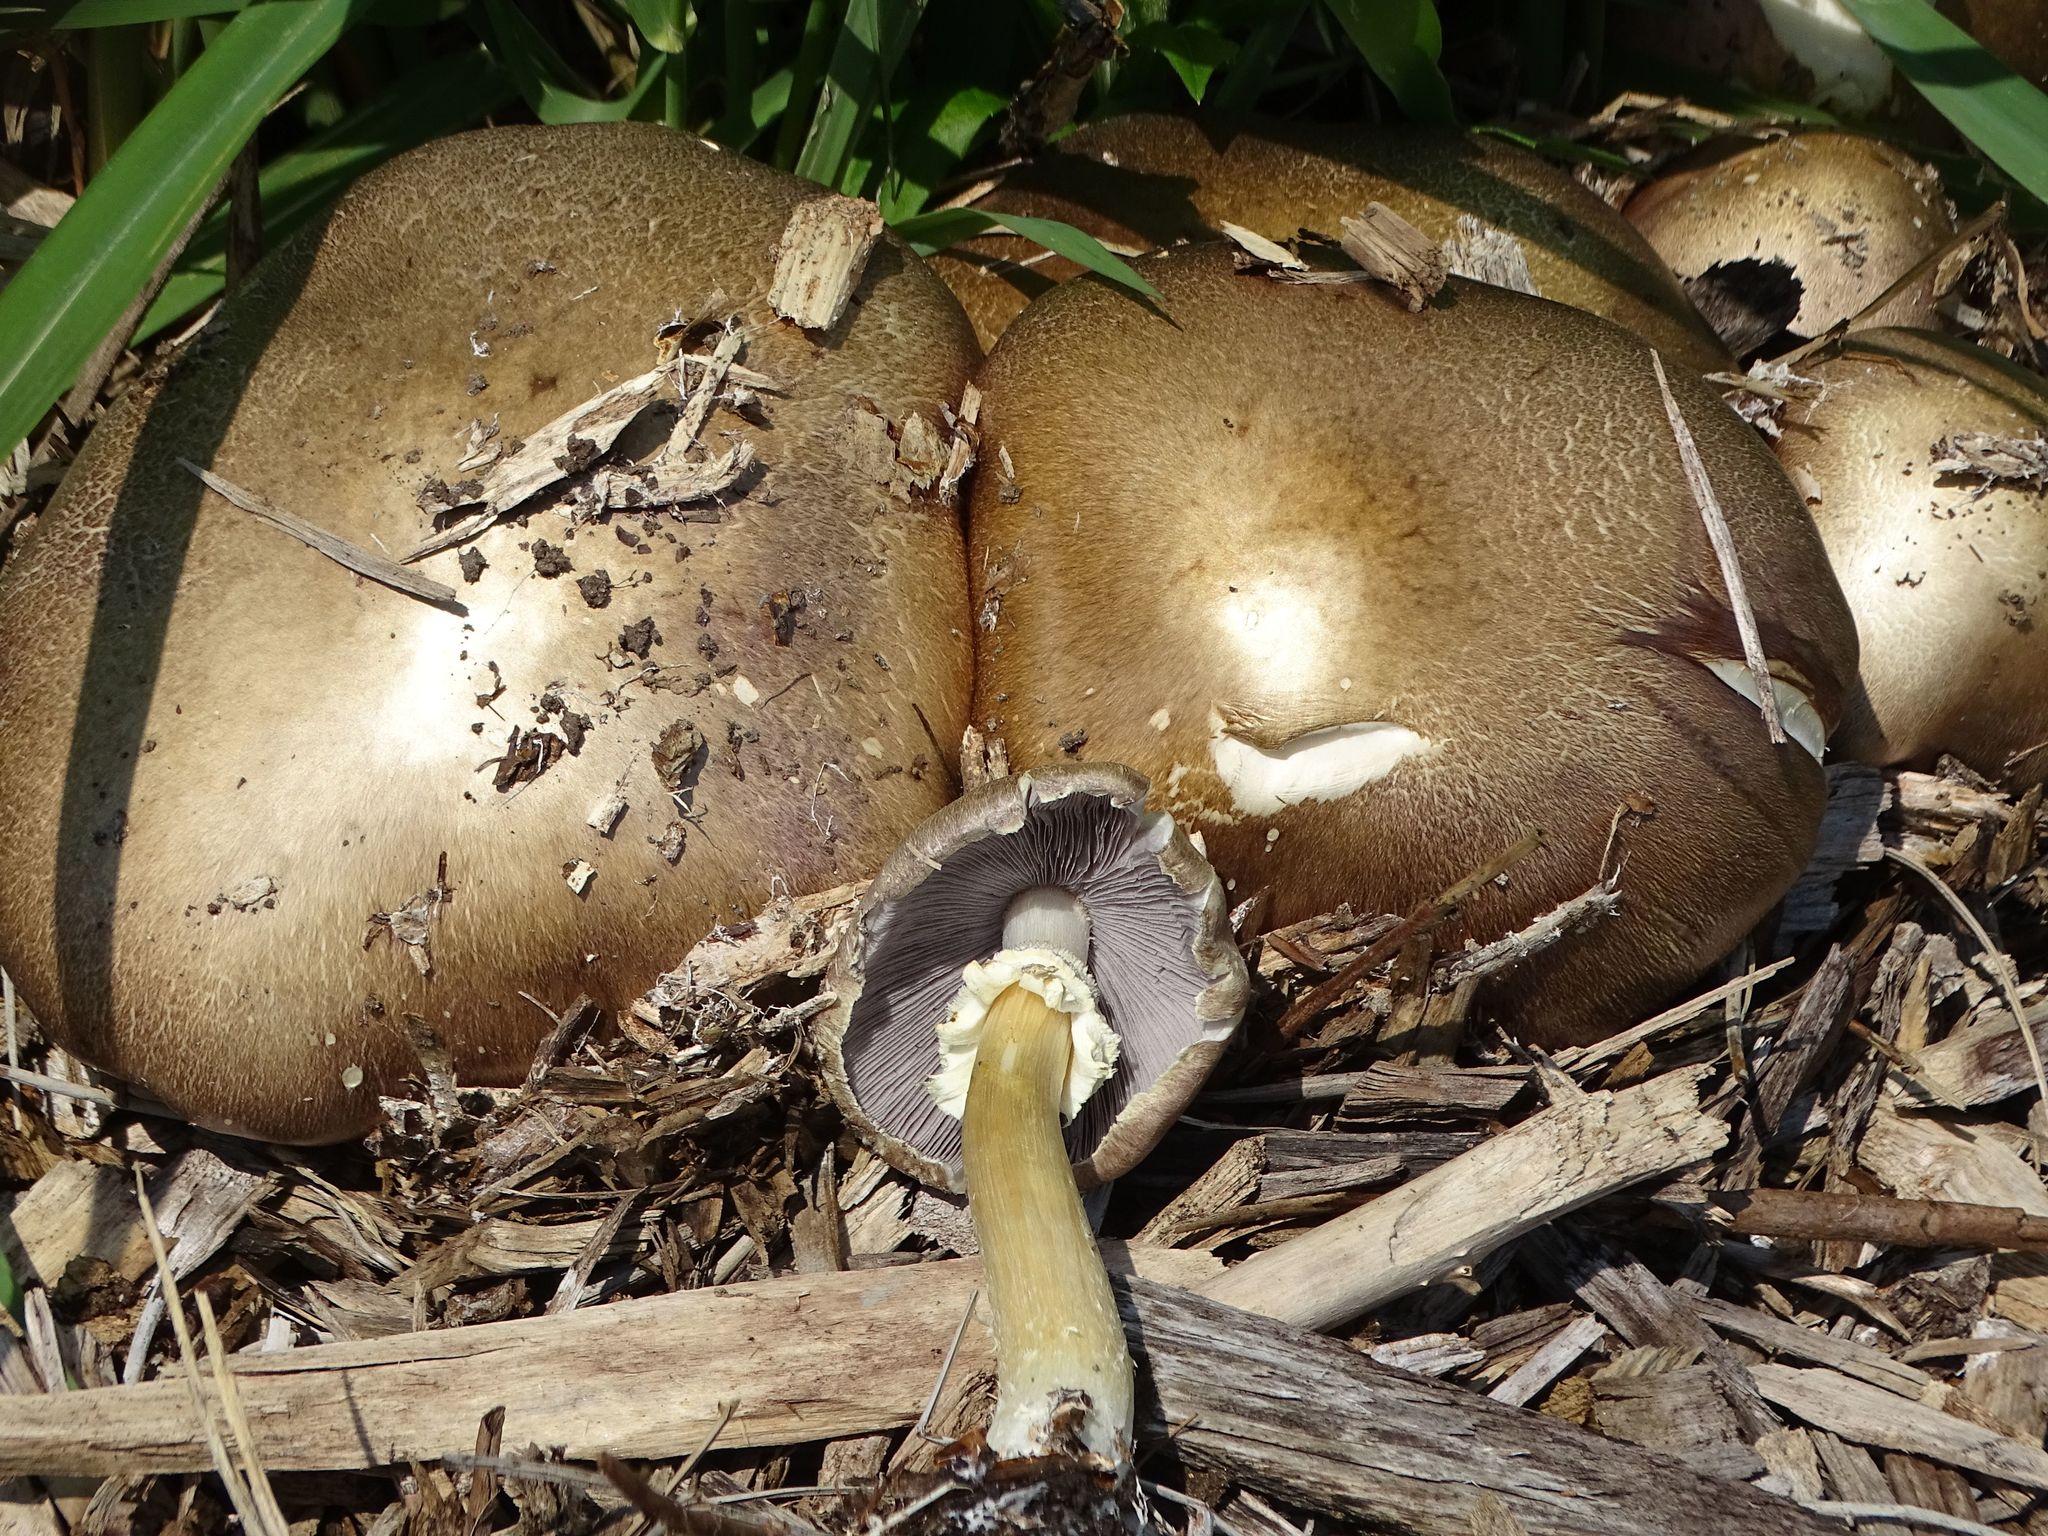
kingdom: Fungi
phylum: Basidiomycota
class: Agaricomycetes
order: Agaricales
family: Strophariaceae
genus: Stropharia
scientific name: Stropharia rugosoannulata
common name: Wine roundhead
